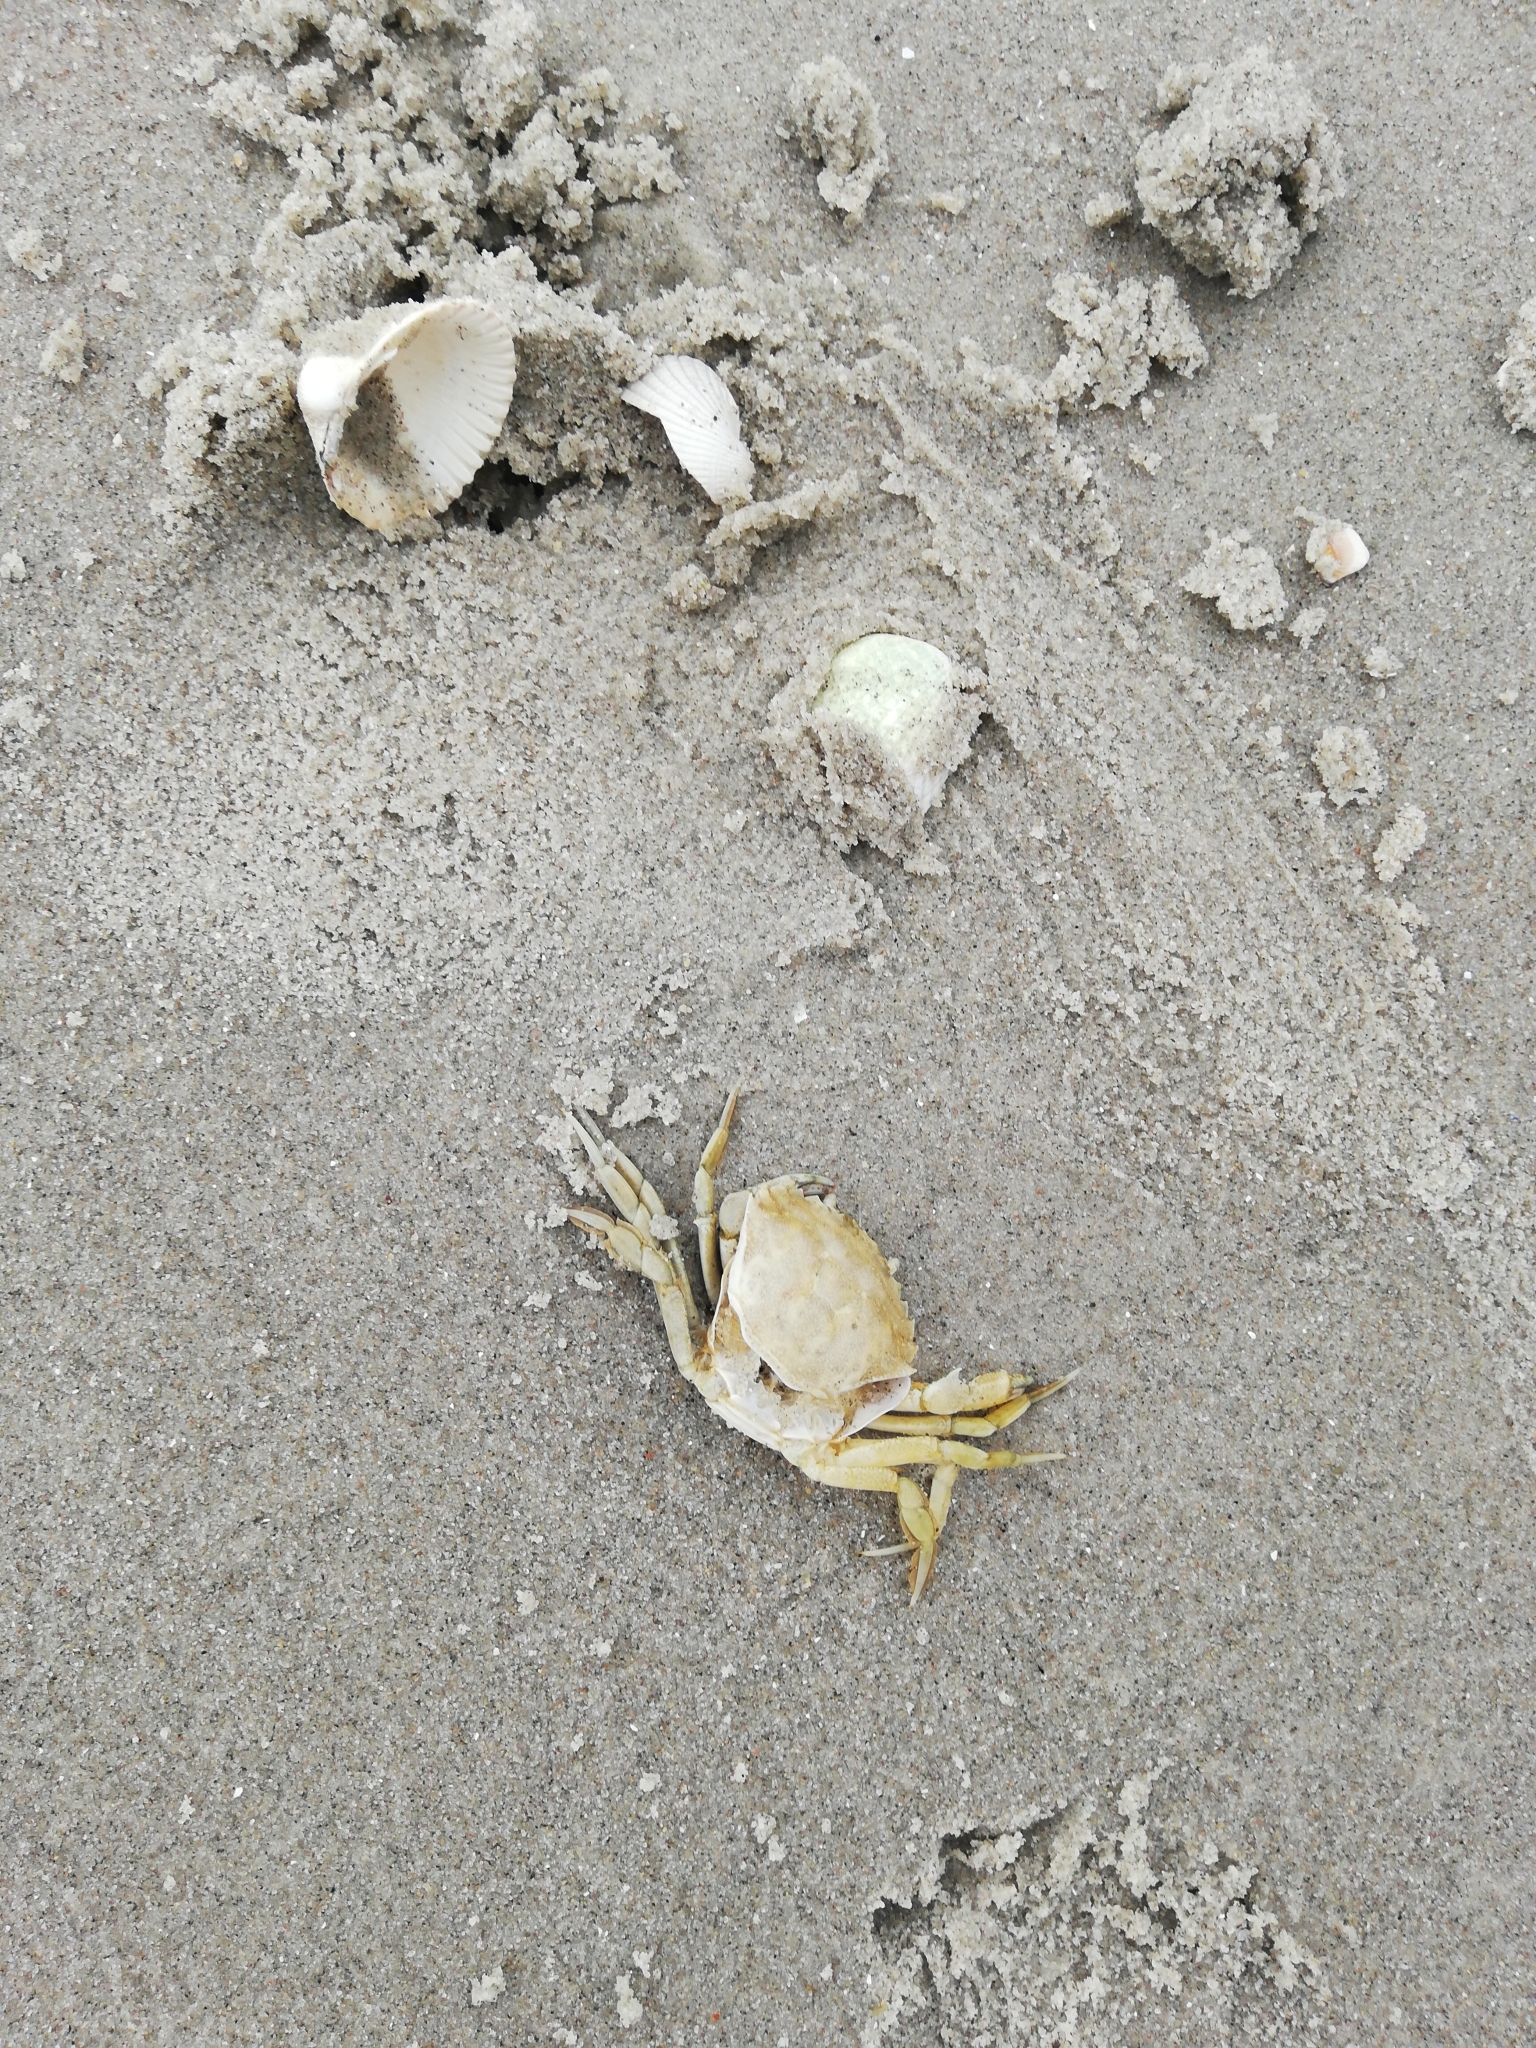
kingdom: Animalia
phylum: Arthropoda
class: Malacostraca
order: Decapoda
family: Carcinidae
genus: Carcinus
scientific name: Carcinus maenas
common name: European green crab
